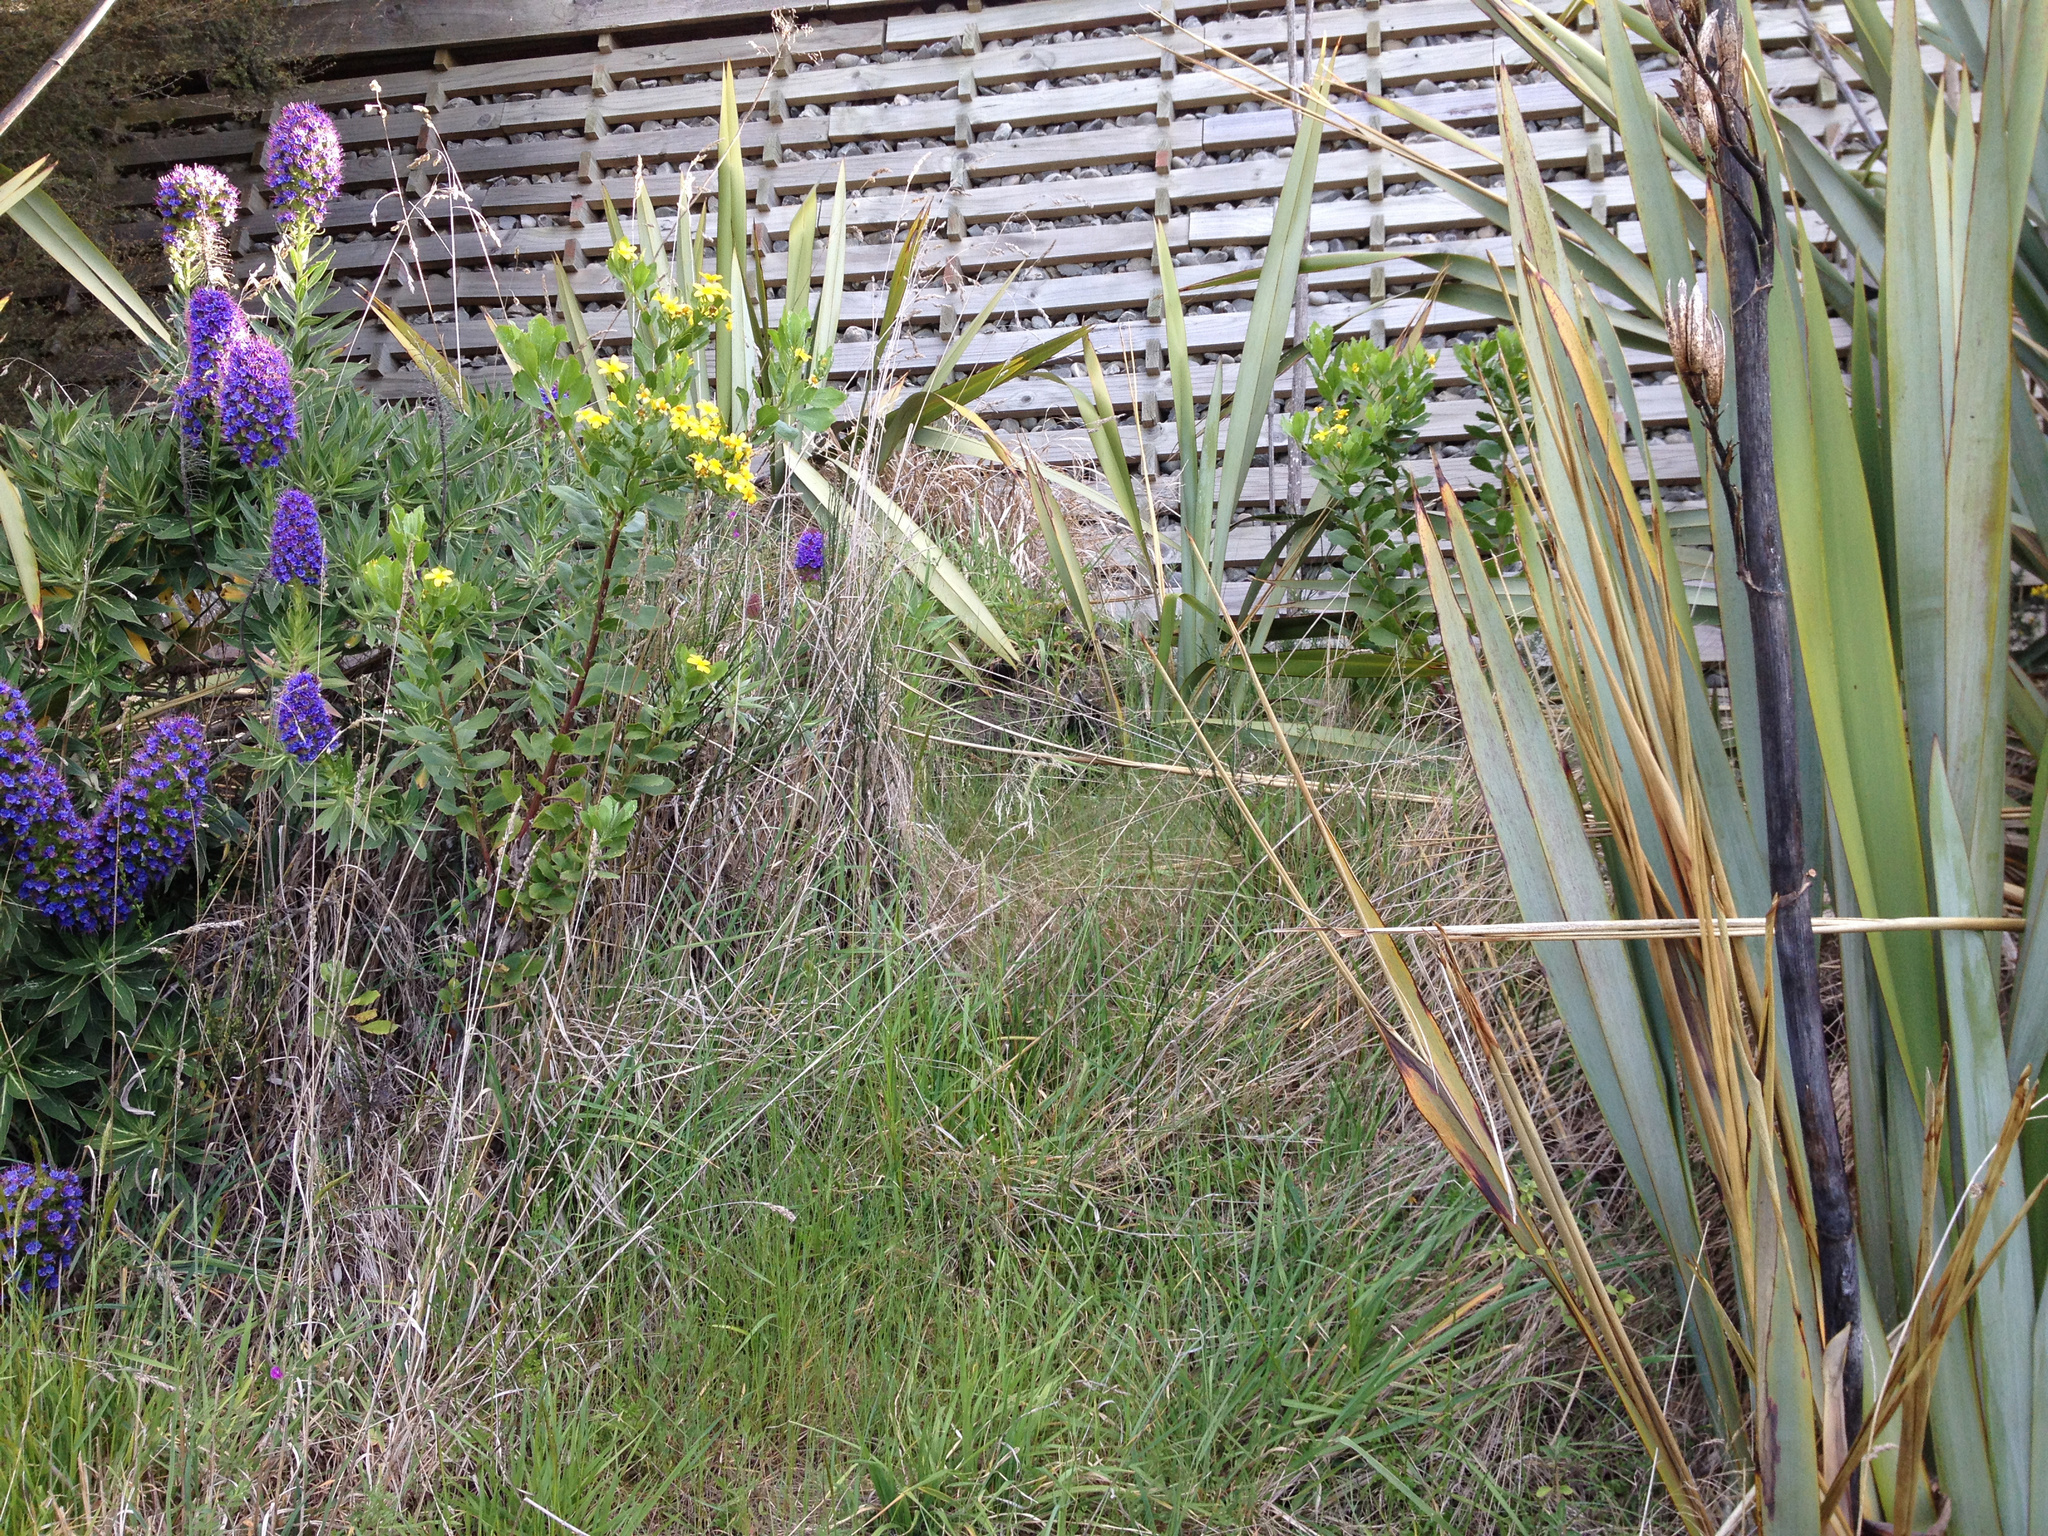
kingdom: Plantae
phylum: Tracheophyta
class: Magnoliopsida
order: Asterales
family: Asteraceae
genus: Osteospermum
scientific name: Osteospermum moniliferum
